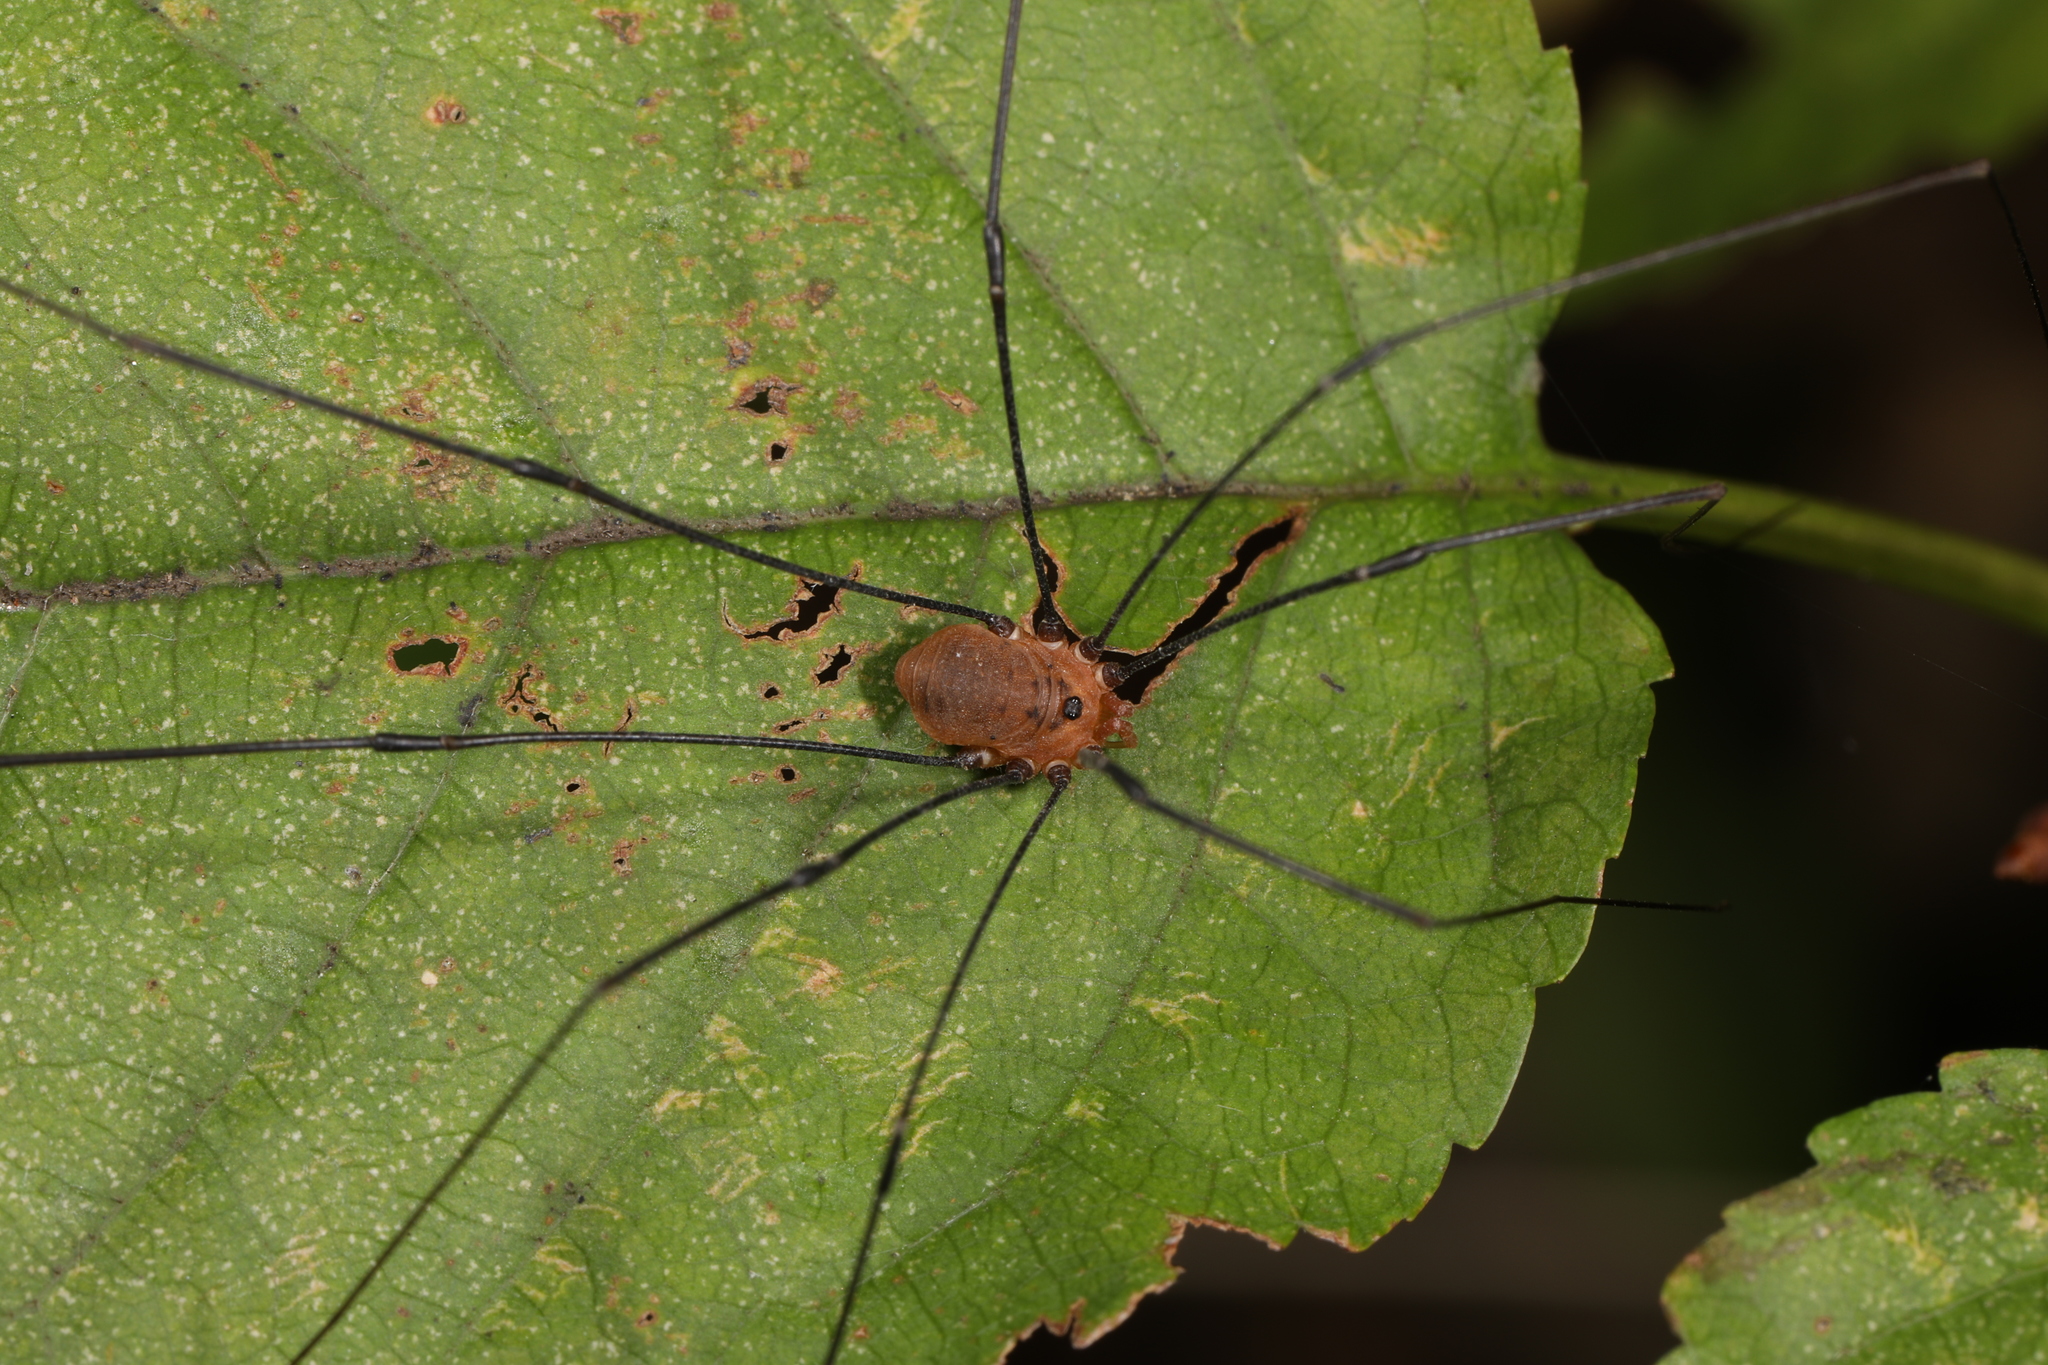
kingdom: Animalia
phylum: Arthropoda
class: Arachnida
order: Opiliones
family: Sclerosomatidae
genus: Leiobunum
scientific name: Leiobunum uxorium
